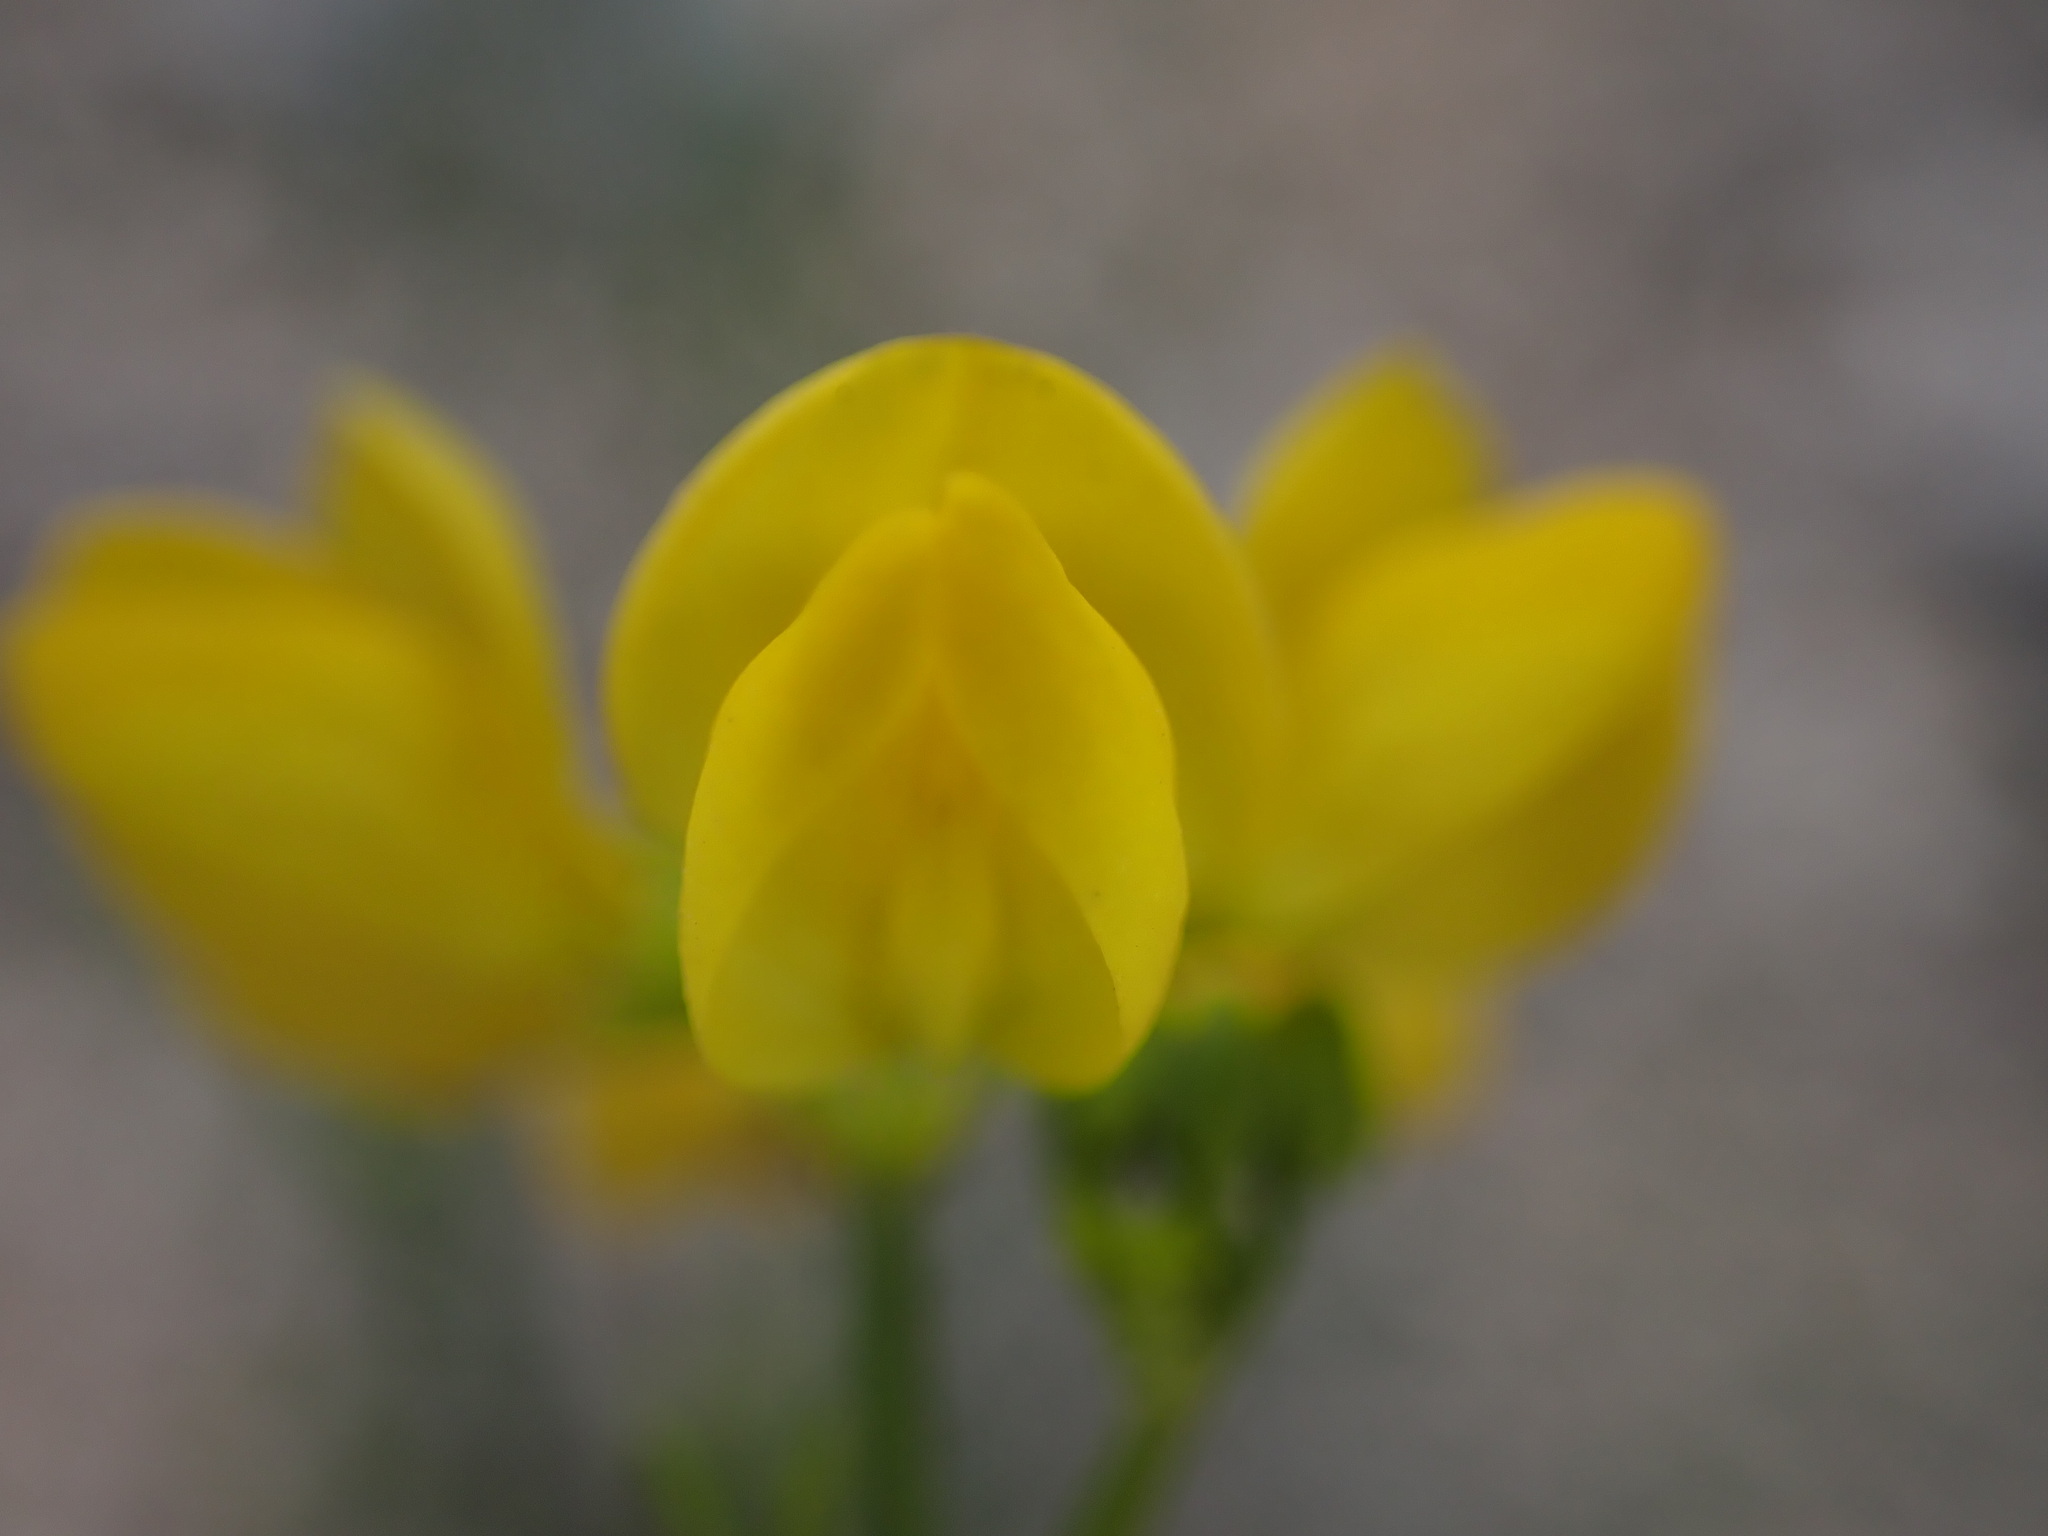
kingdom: Plantae
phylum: Tracheophyta
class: Magnoliopsida
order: Fabales
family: Fabaceae
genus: Coronilla
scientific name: Coronilla juncea
